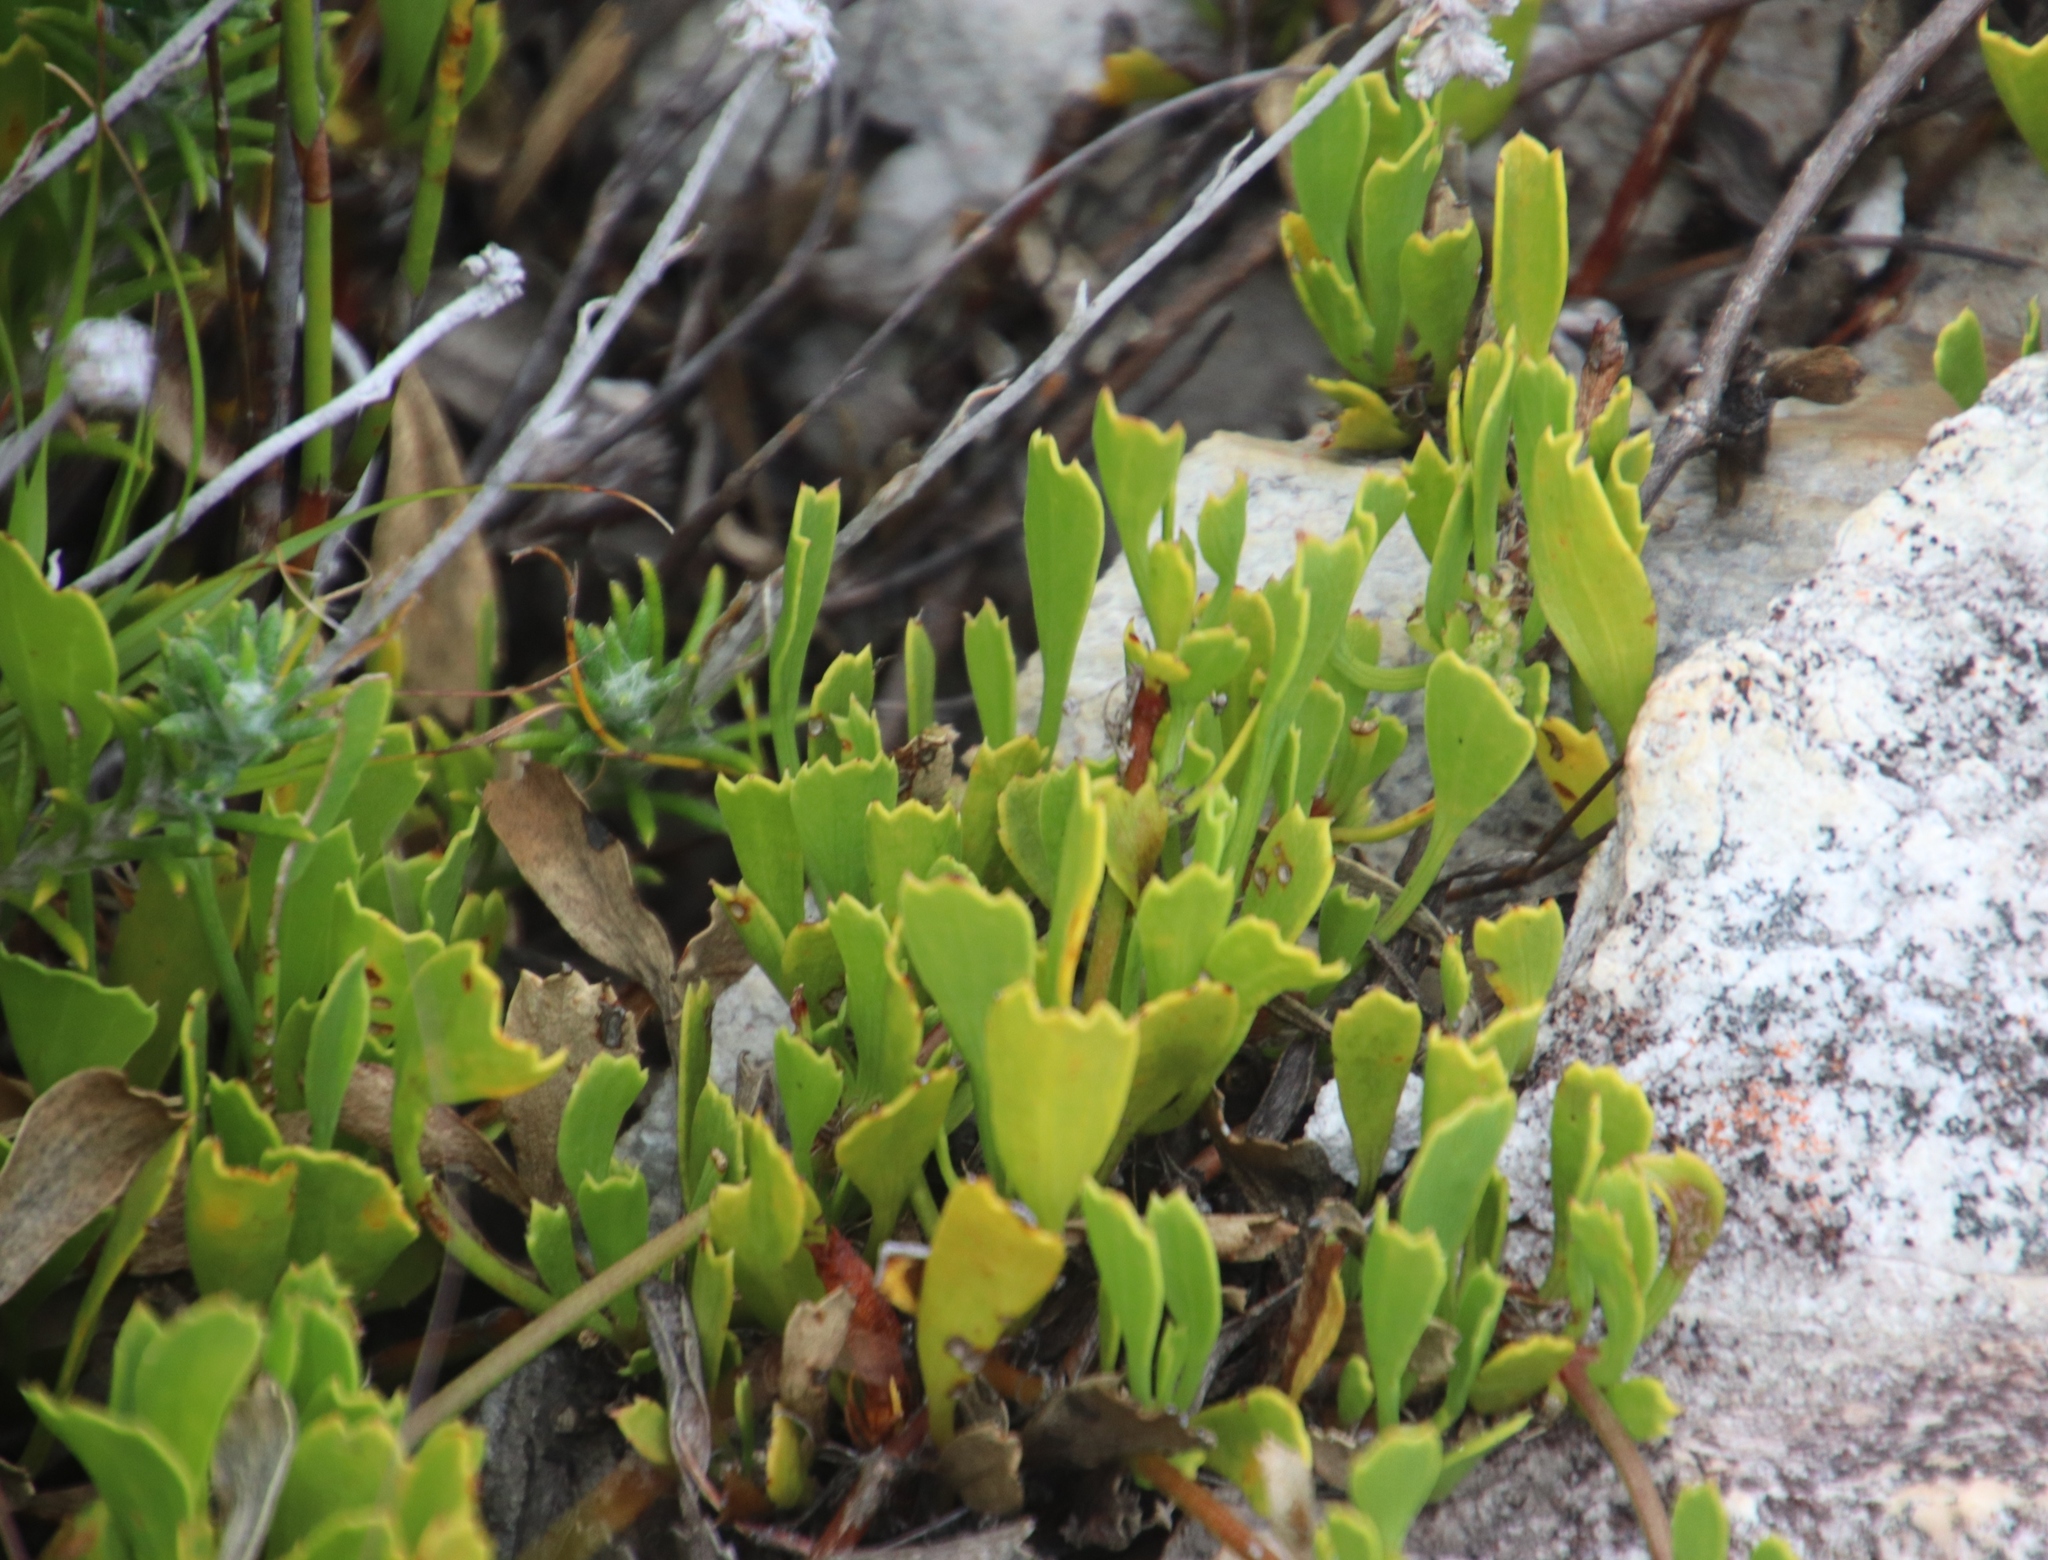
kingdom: Plantae
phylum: Tracheophyta
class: Magnoliopsida
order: Apiales
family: Apiaceae
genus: Centella
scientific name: Centella triloba
